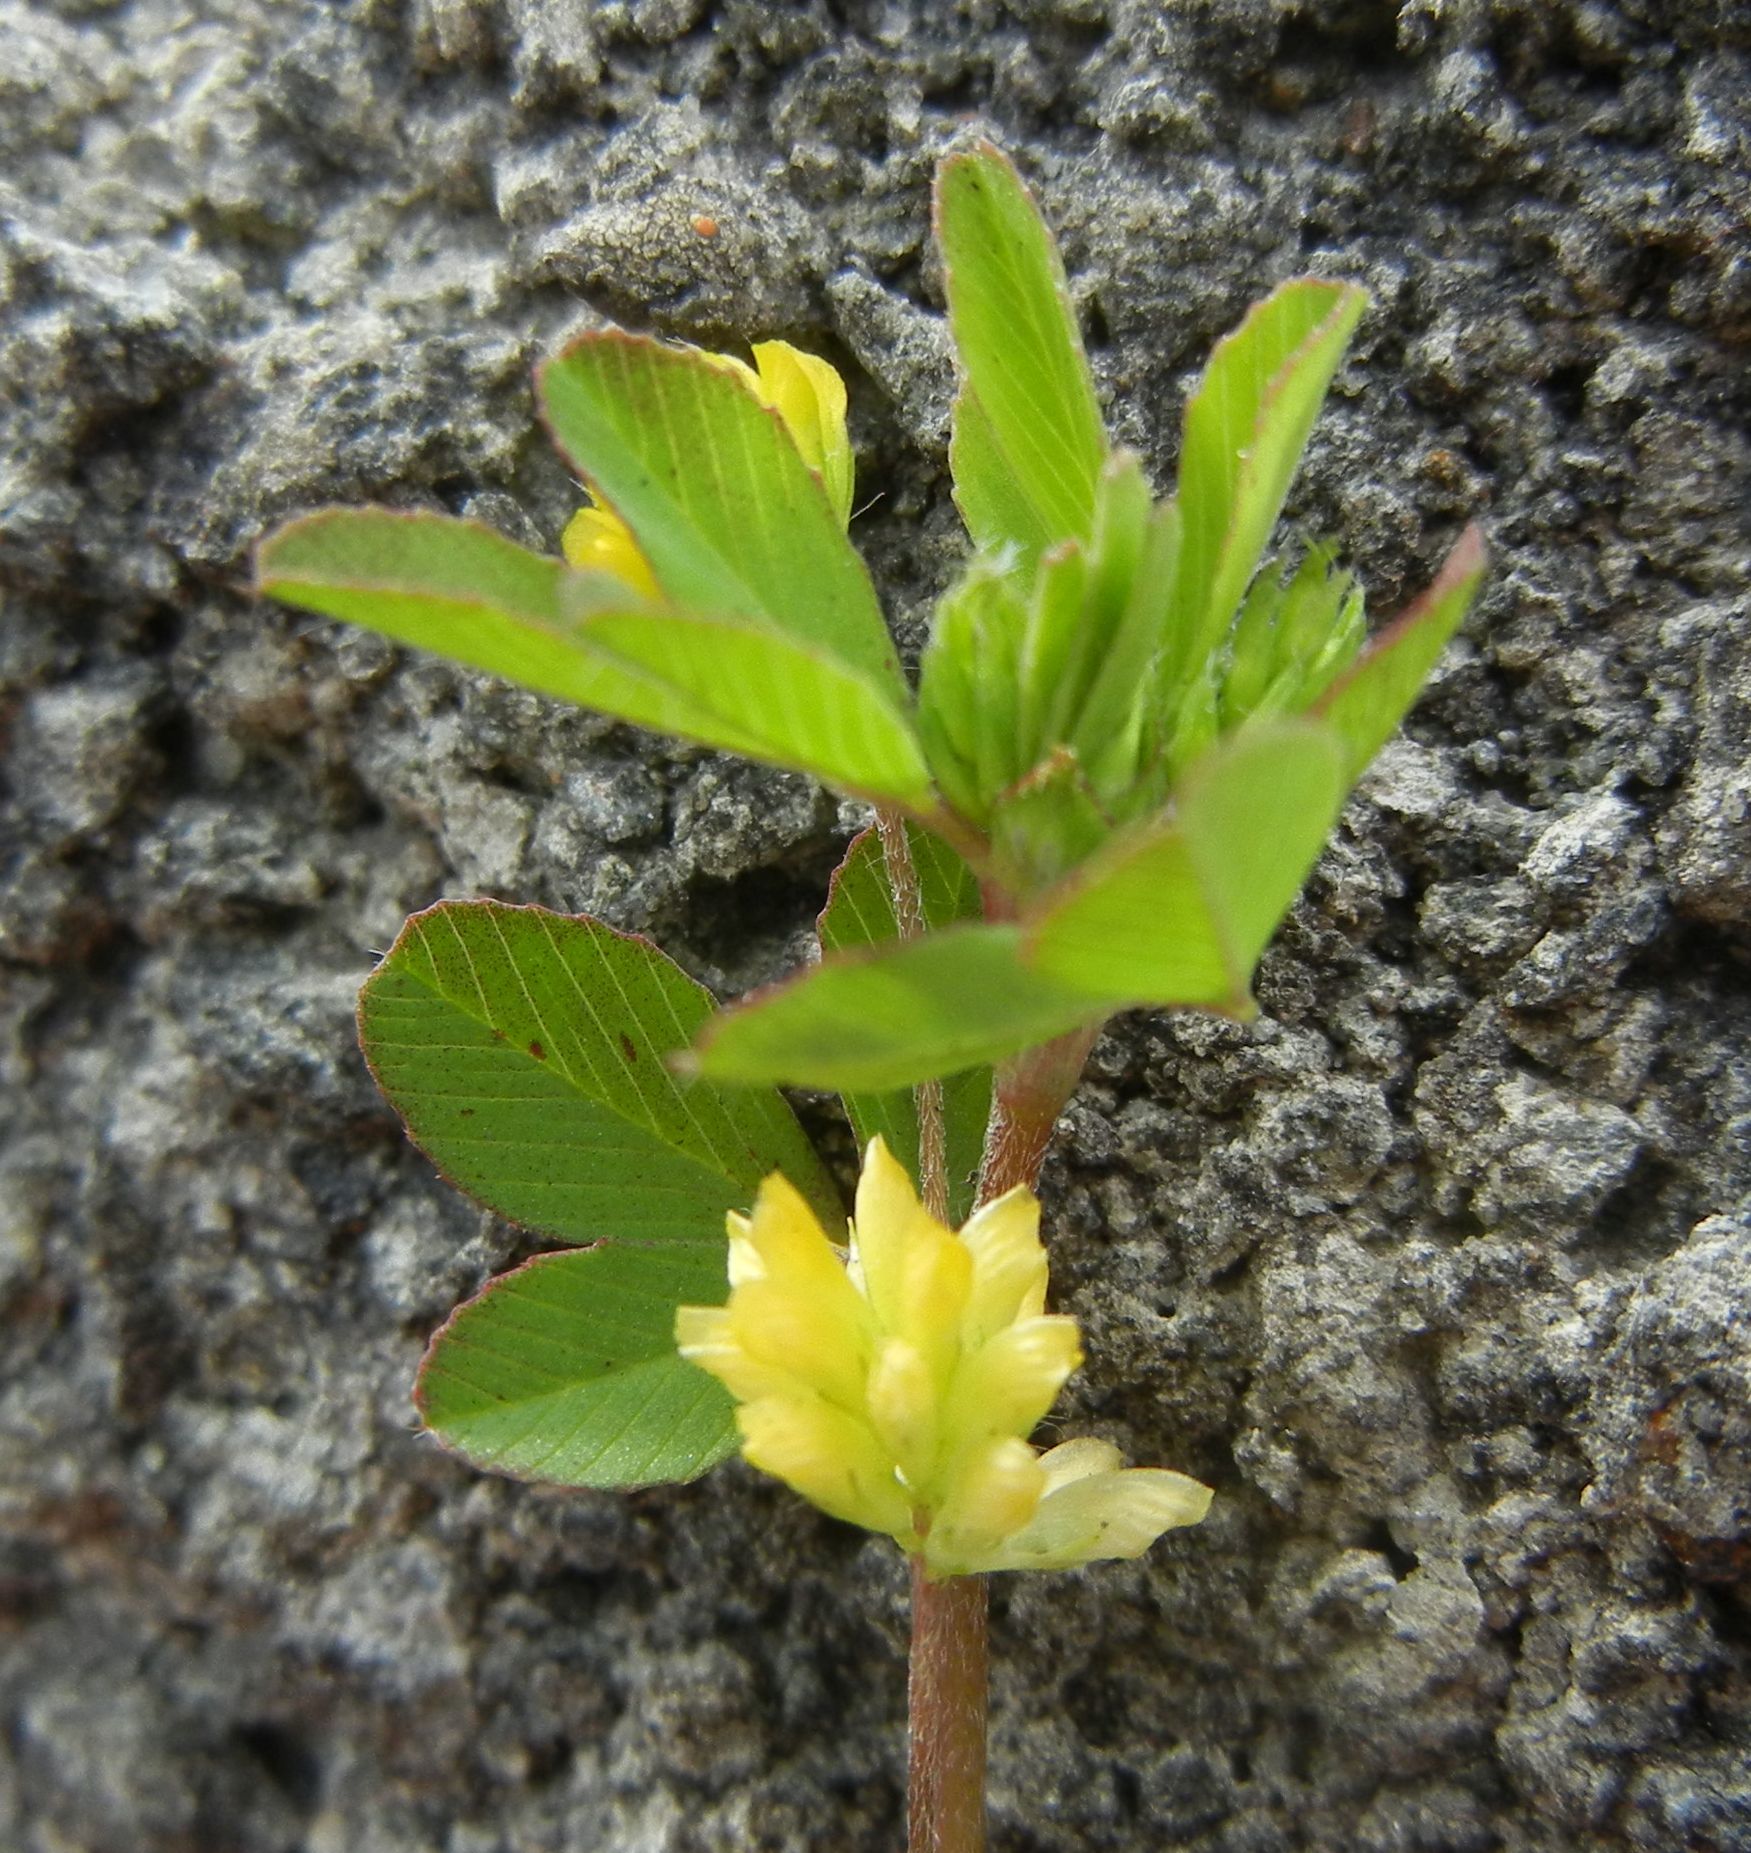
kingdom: Plantae
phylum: Tracheophyta
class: Magnoliopsida
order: Fabales
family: Fabaceae
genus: Trifolium
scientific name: Trifolium dubium
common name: Suckling clover
